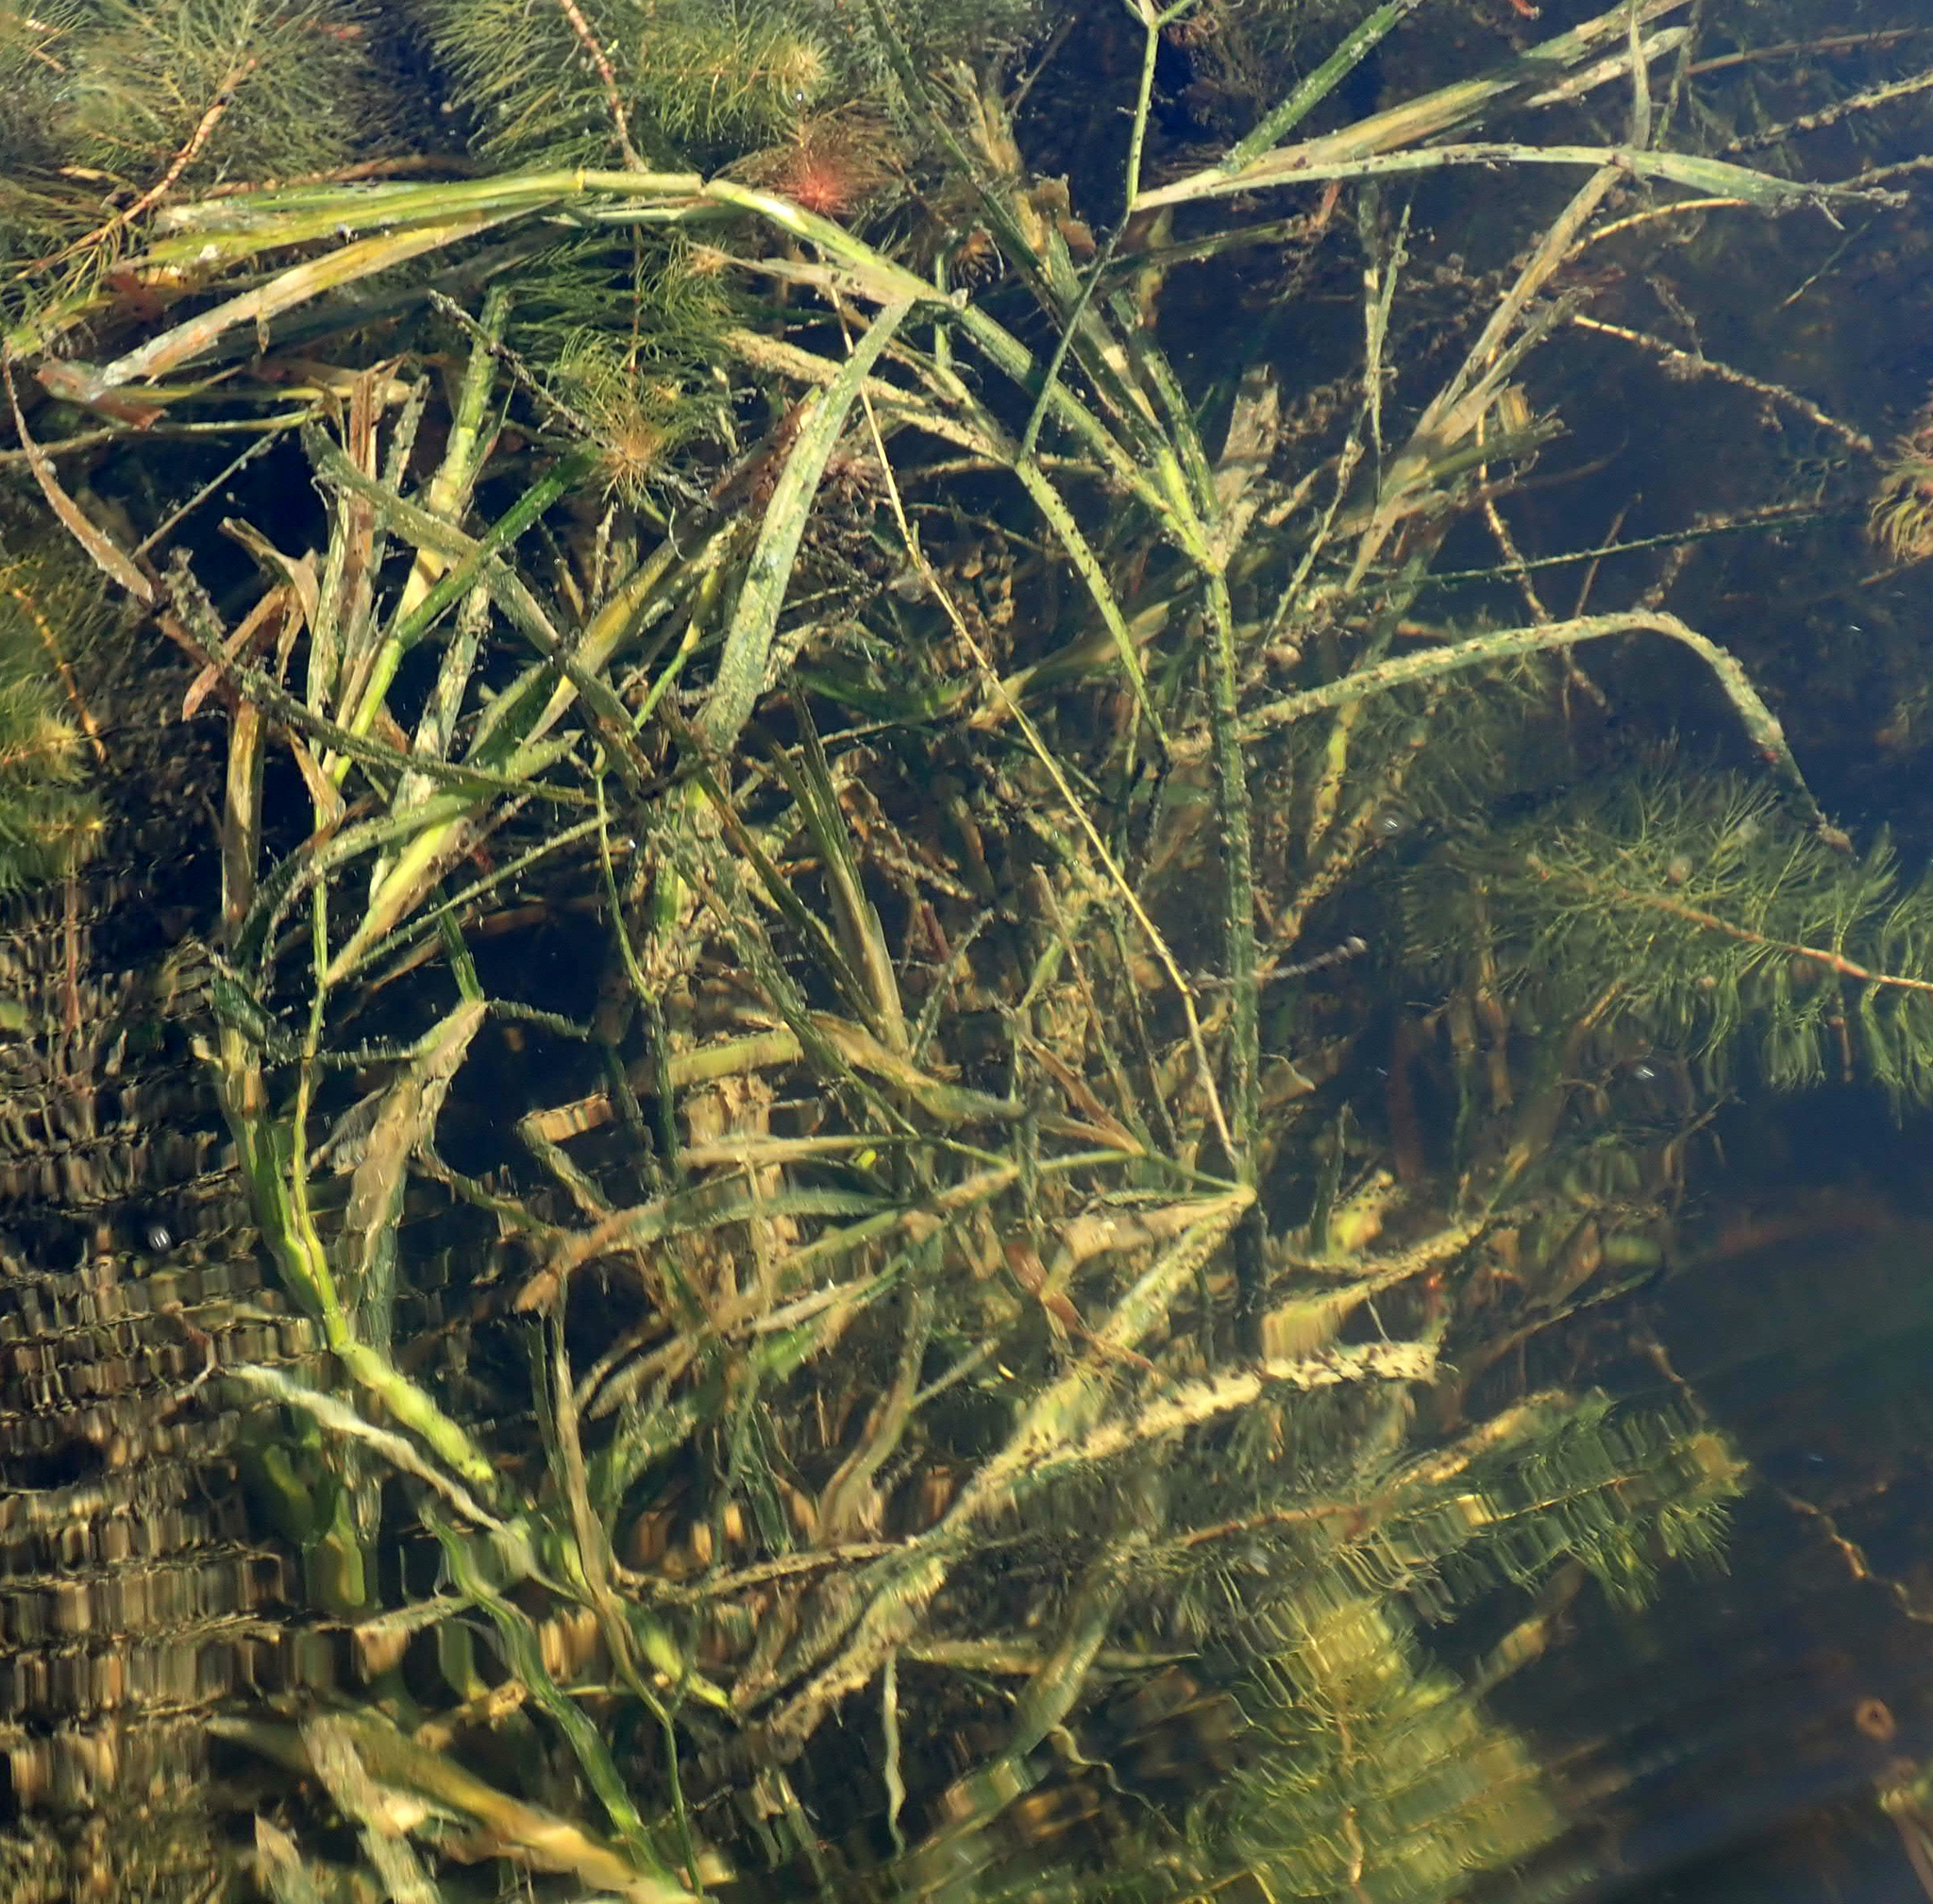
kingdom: Plantae
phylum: Tracheophyta
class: Liliopsida
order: Alismatales
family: Potamogetonaceae
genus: Potamogeton
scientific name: Potamogeton zosteriformis
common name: Eelgrass pondweed
